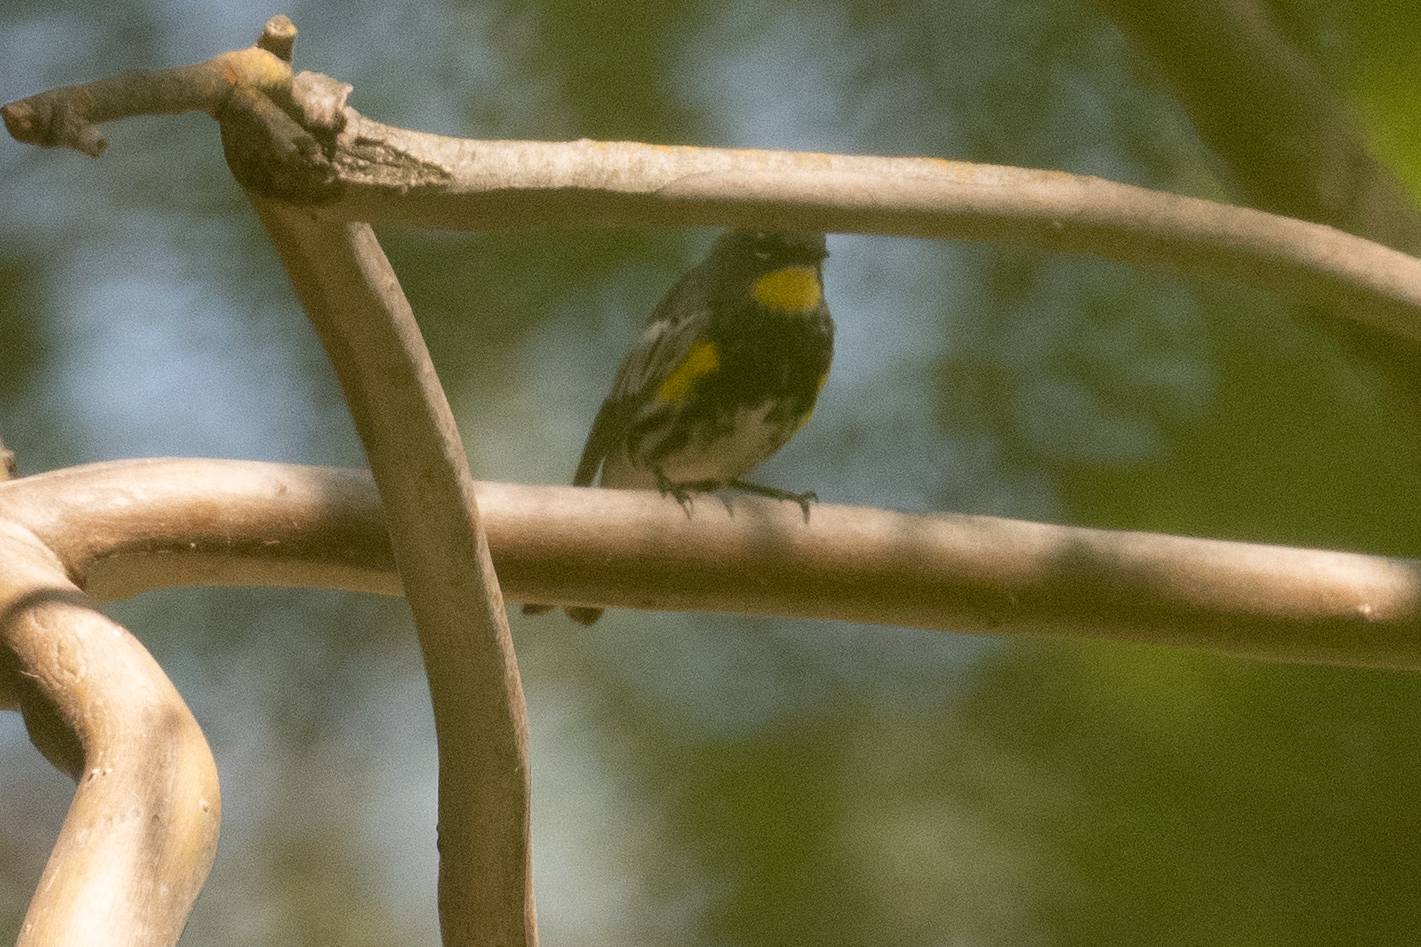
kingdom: Animalia
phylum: Chordata
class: Aves
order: Passeriformes
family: Parulidae
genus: Setophaga
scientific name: Setophaga coronata
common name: Myrtle warbler
